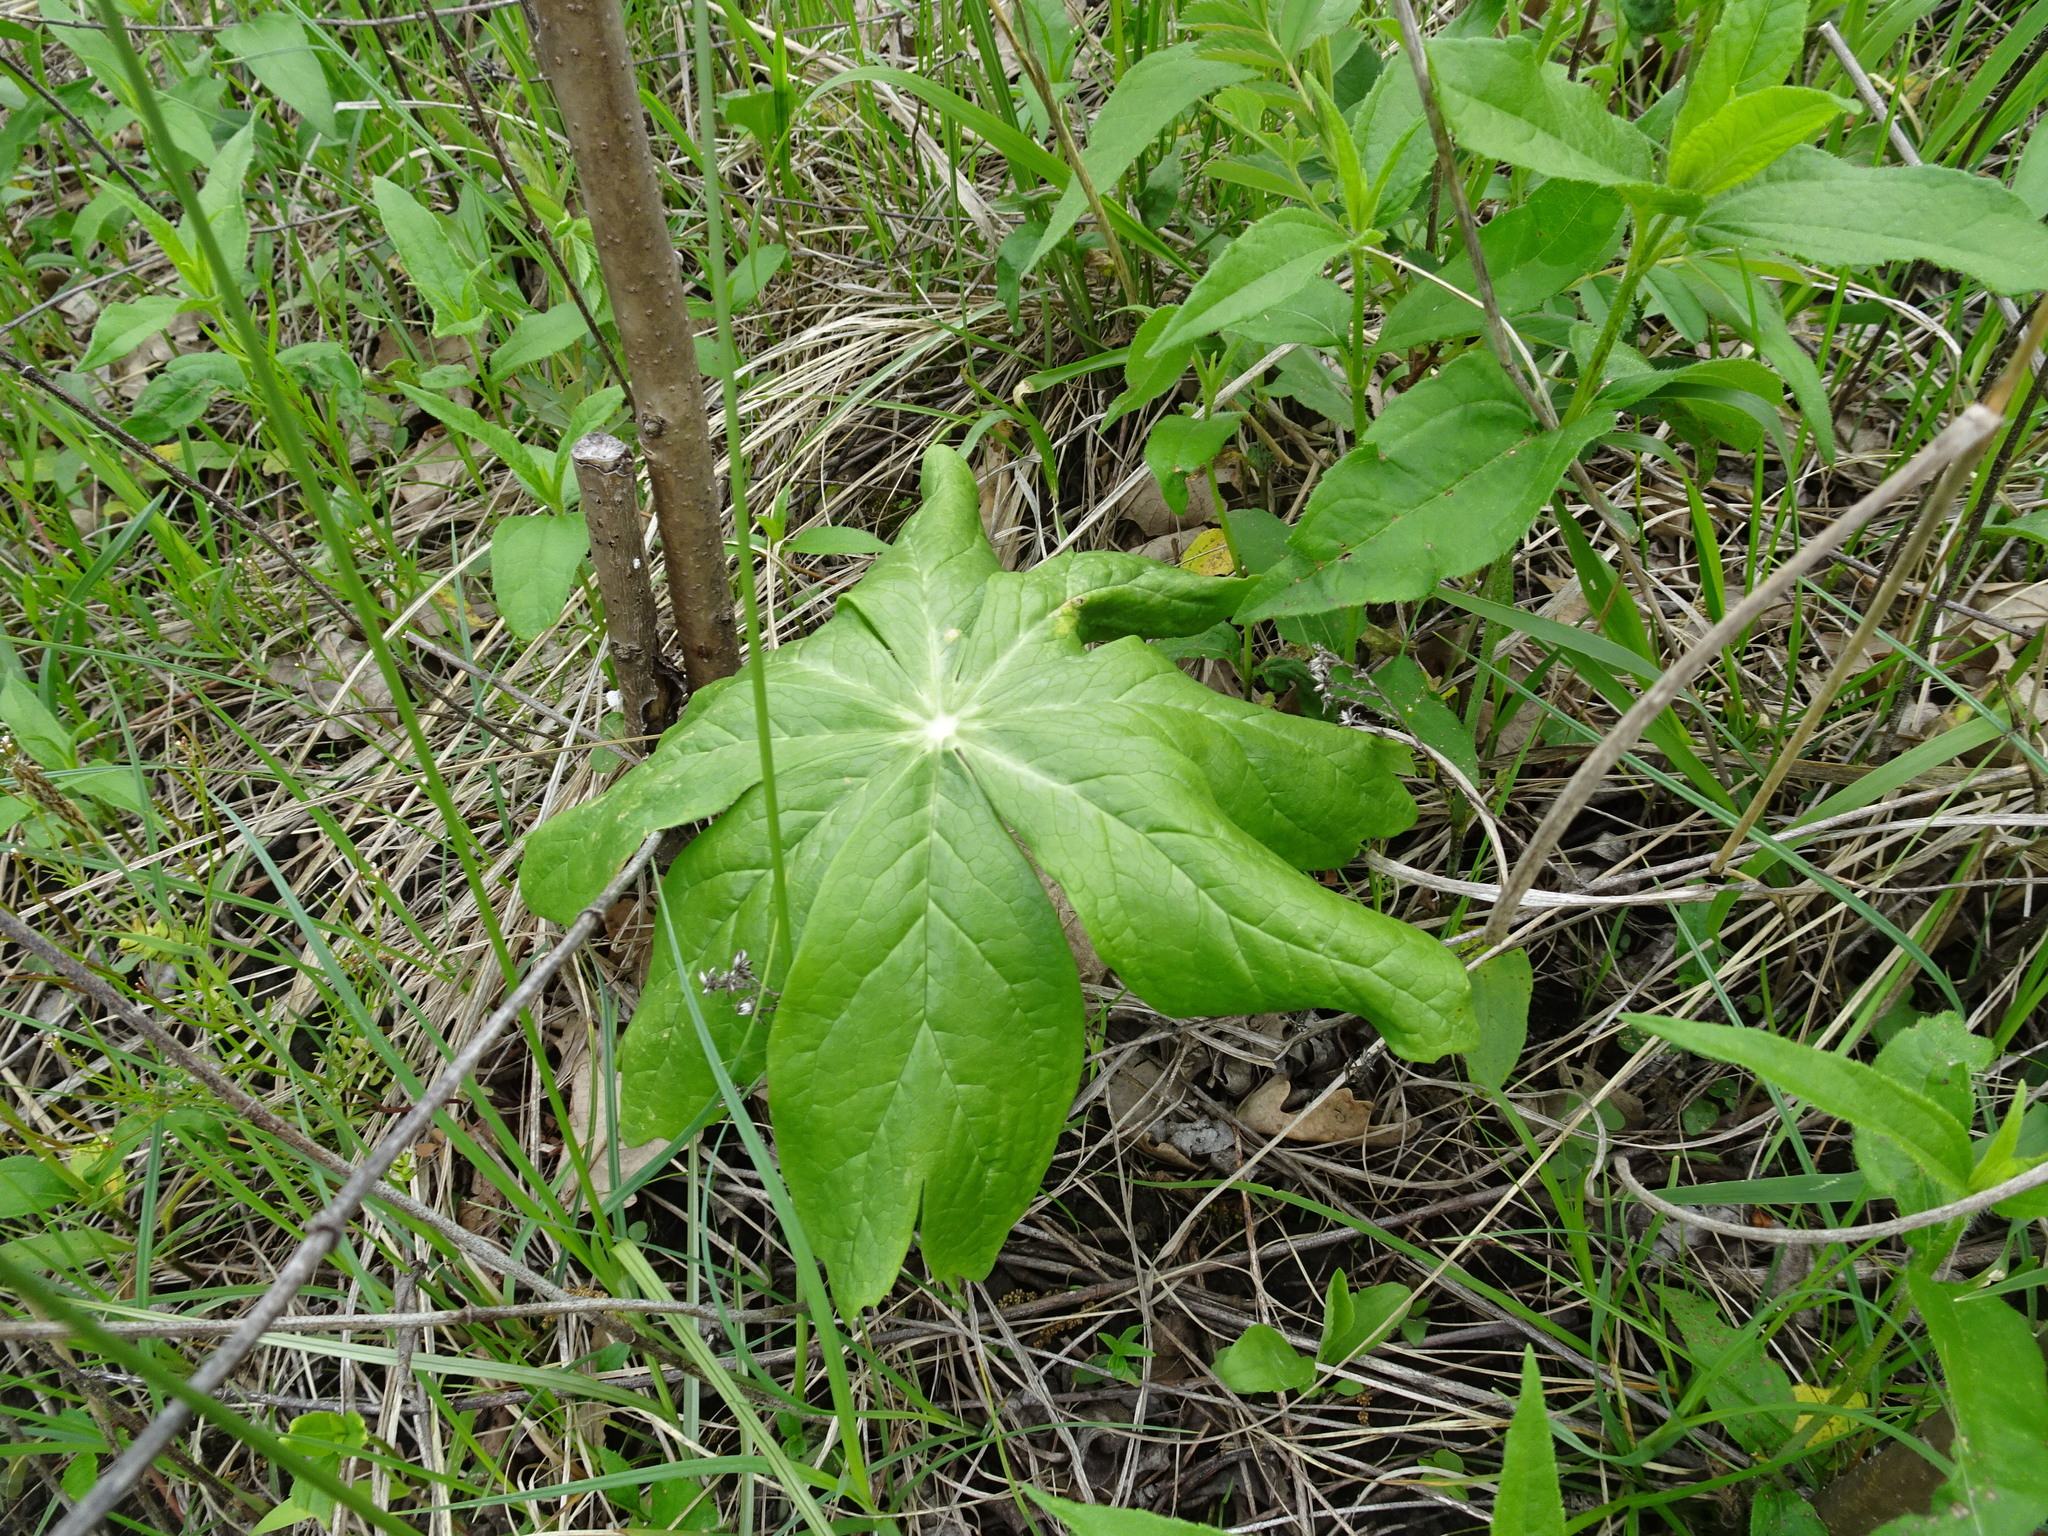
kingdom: Plantae
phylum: Tracheophyta
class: Magnoliopsida
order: Ranunculales
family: Berberidaceae
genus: Podophyllum
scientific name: Podophyllum peltatum
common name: Wild mandrake
